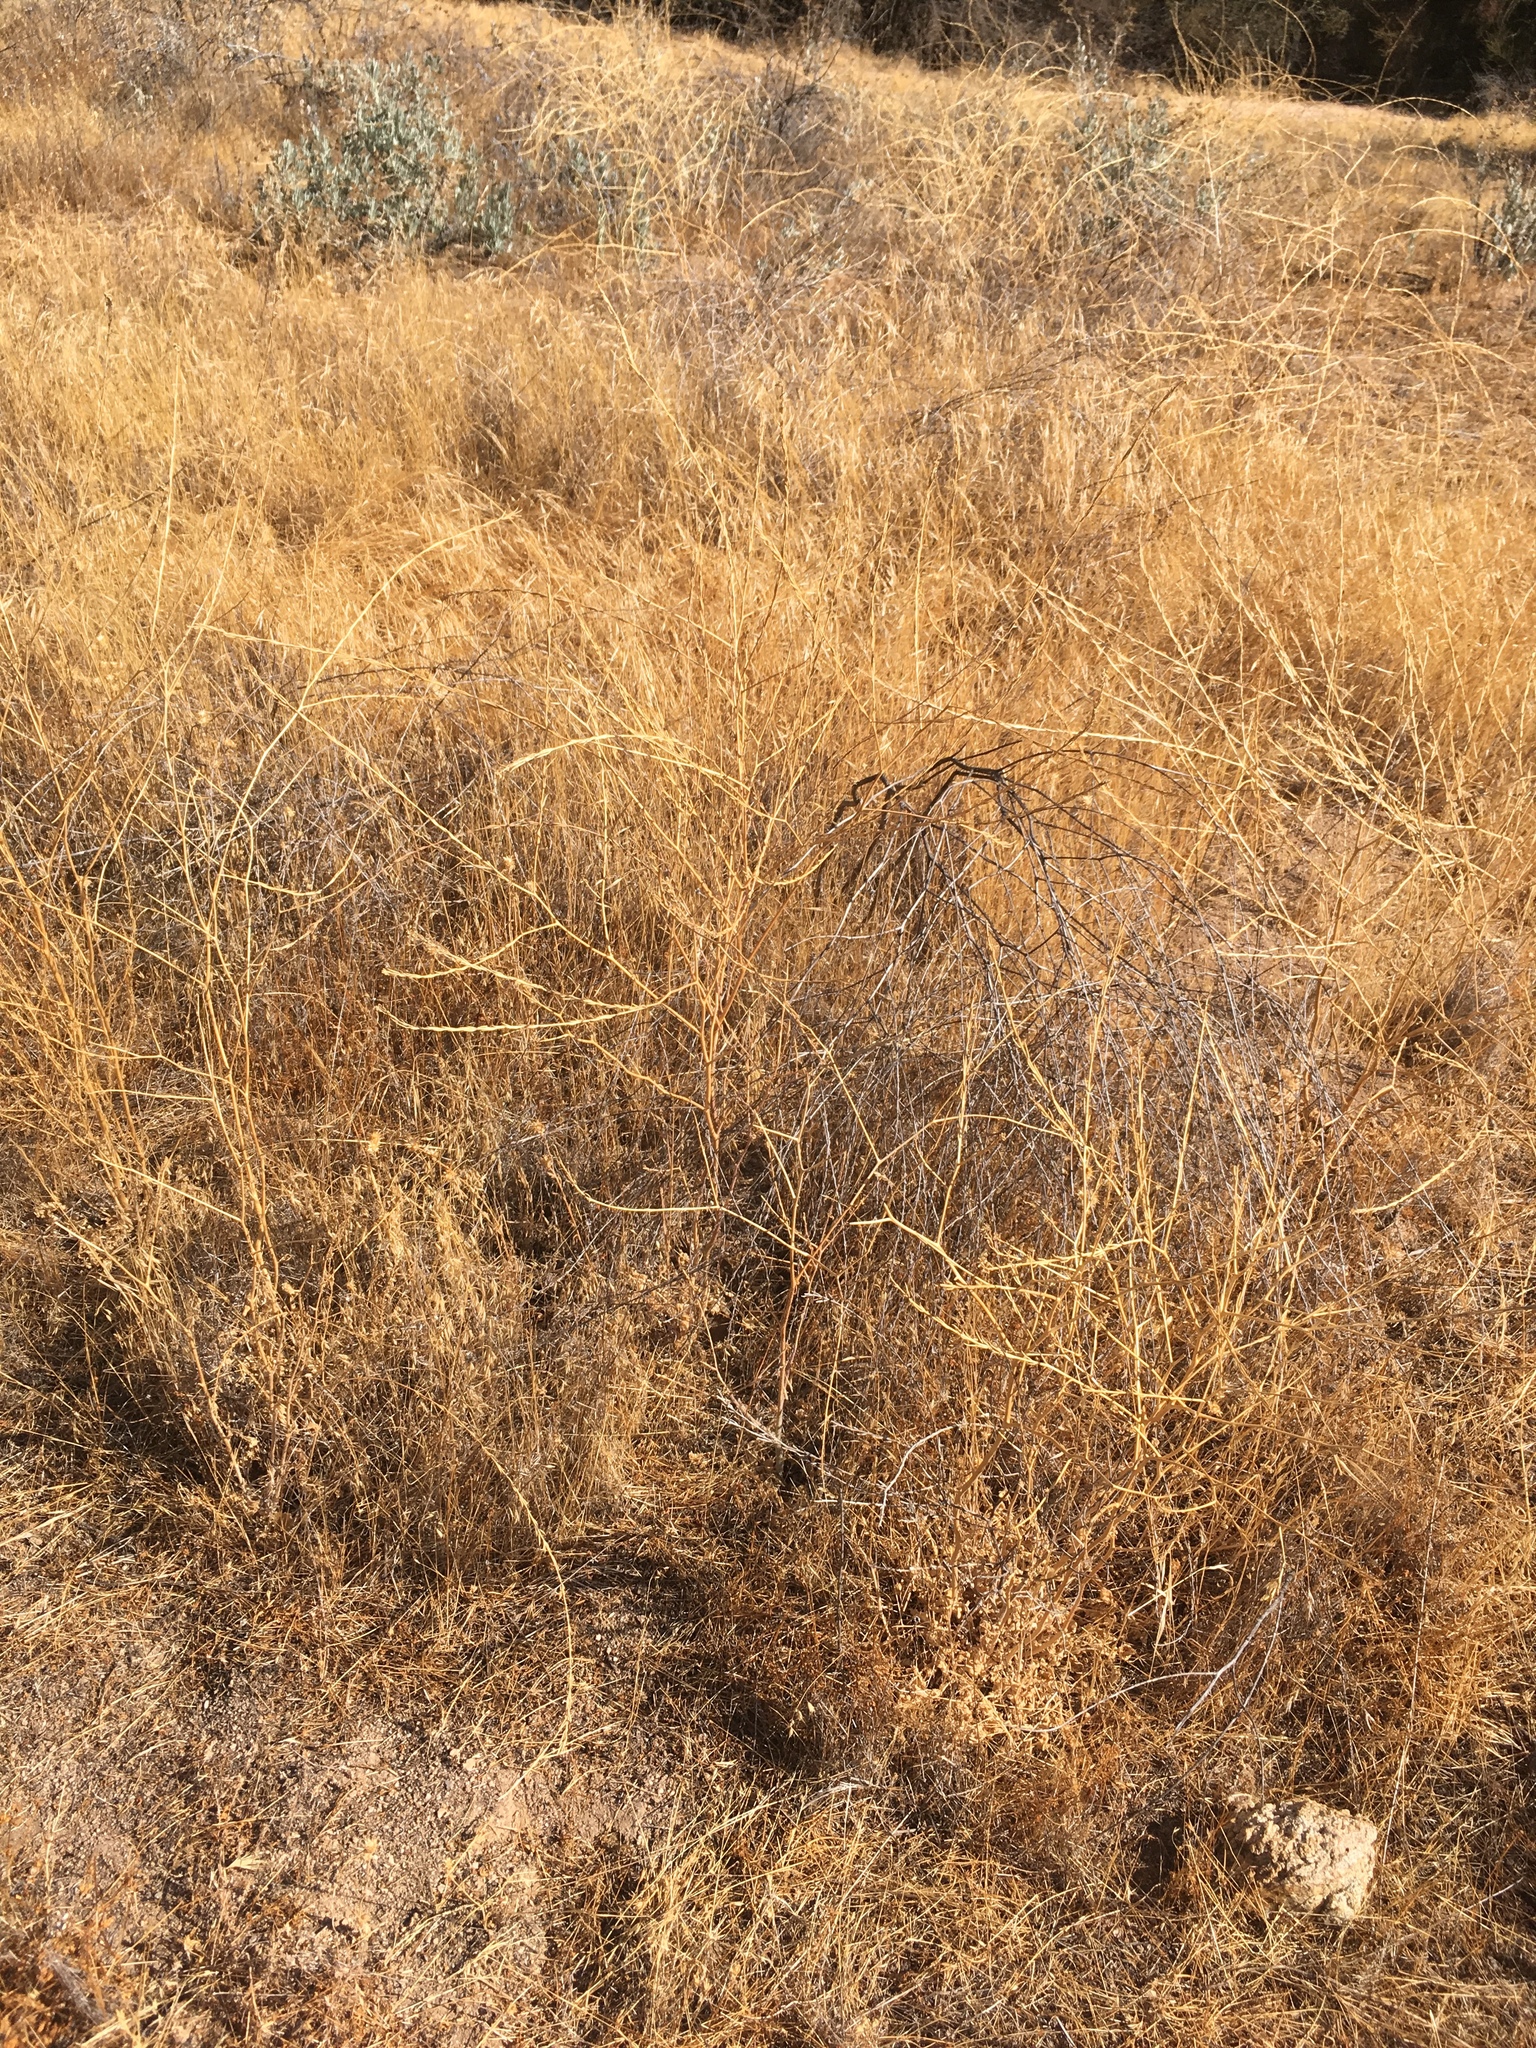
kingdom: Plantae
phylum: Tracheophyta
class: Magnoliopsida
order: Brassicales
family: Brassicaceae
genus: Hirschfeldia
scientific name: Hirschfeldia incana
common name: Hoary mustard
